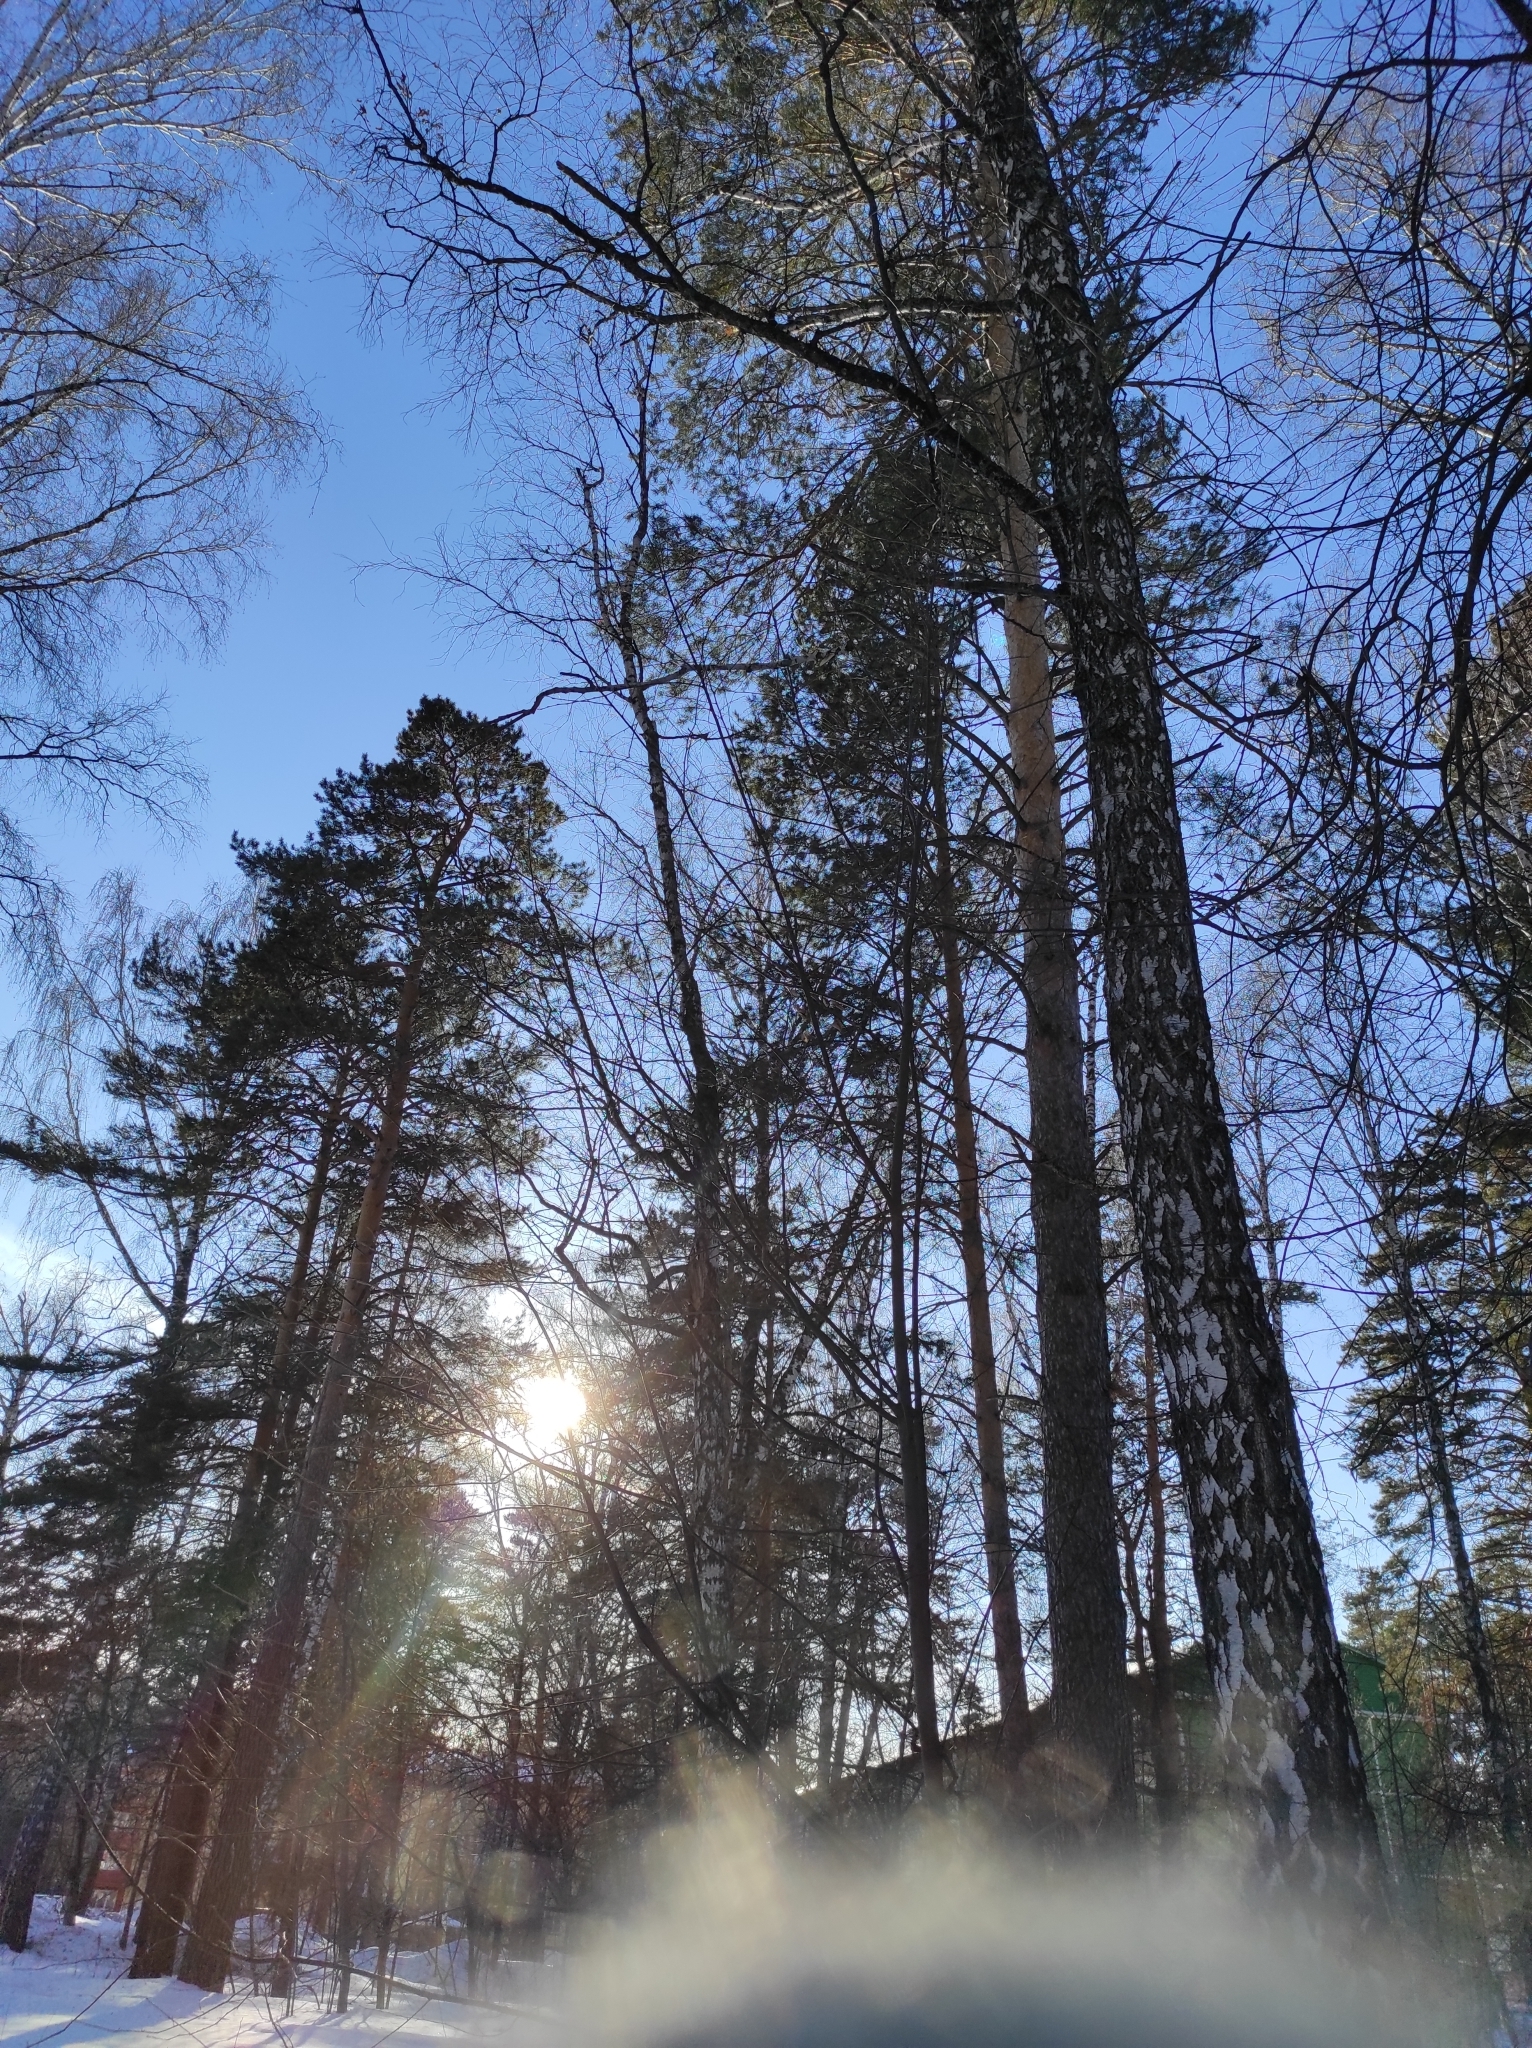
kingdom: Plantae
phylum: Tracheophyta
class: Pinopsida
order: Pinales
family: Pinaceae
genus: Pinus
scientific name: Pinus sylvestris
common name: Scots pine
